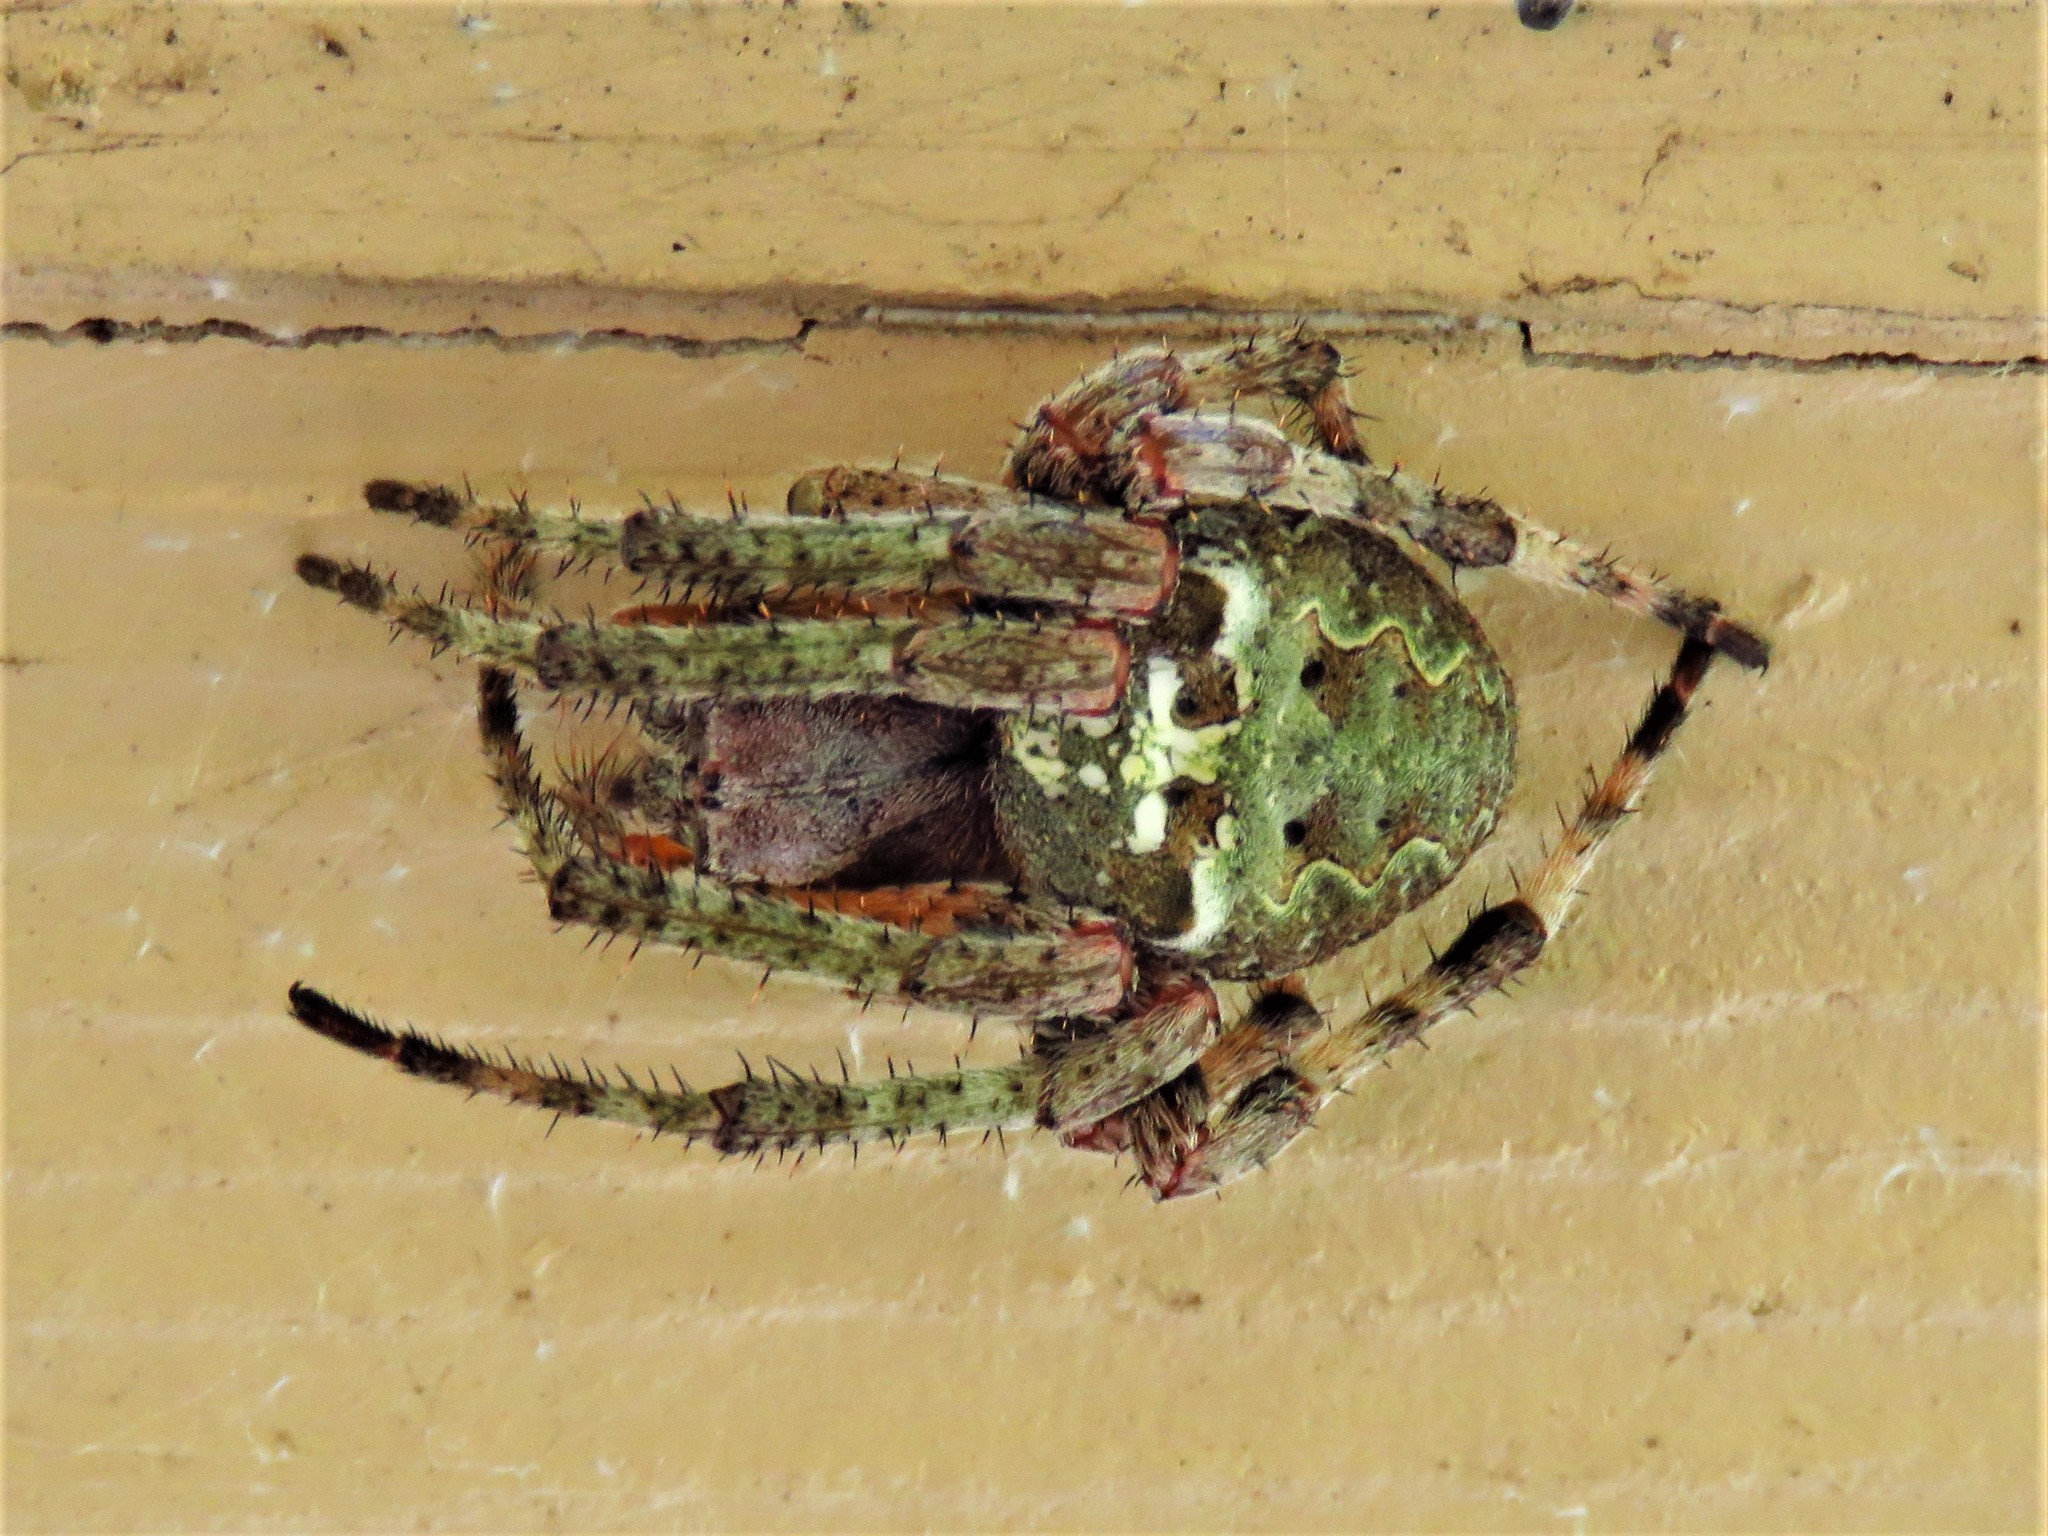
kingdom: Animalia
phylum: Arthropoda
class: Arachnida
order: Araneae
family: Araneidae
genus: Araneus
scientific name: Araneus bicentenarius
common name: Giant lichen orbweaver
